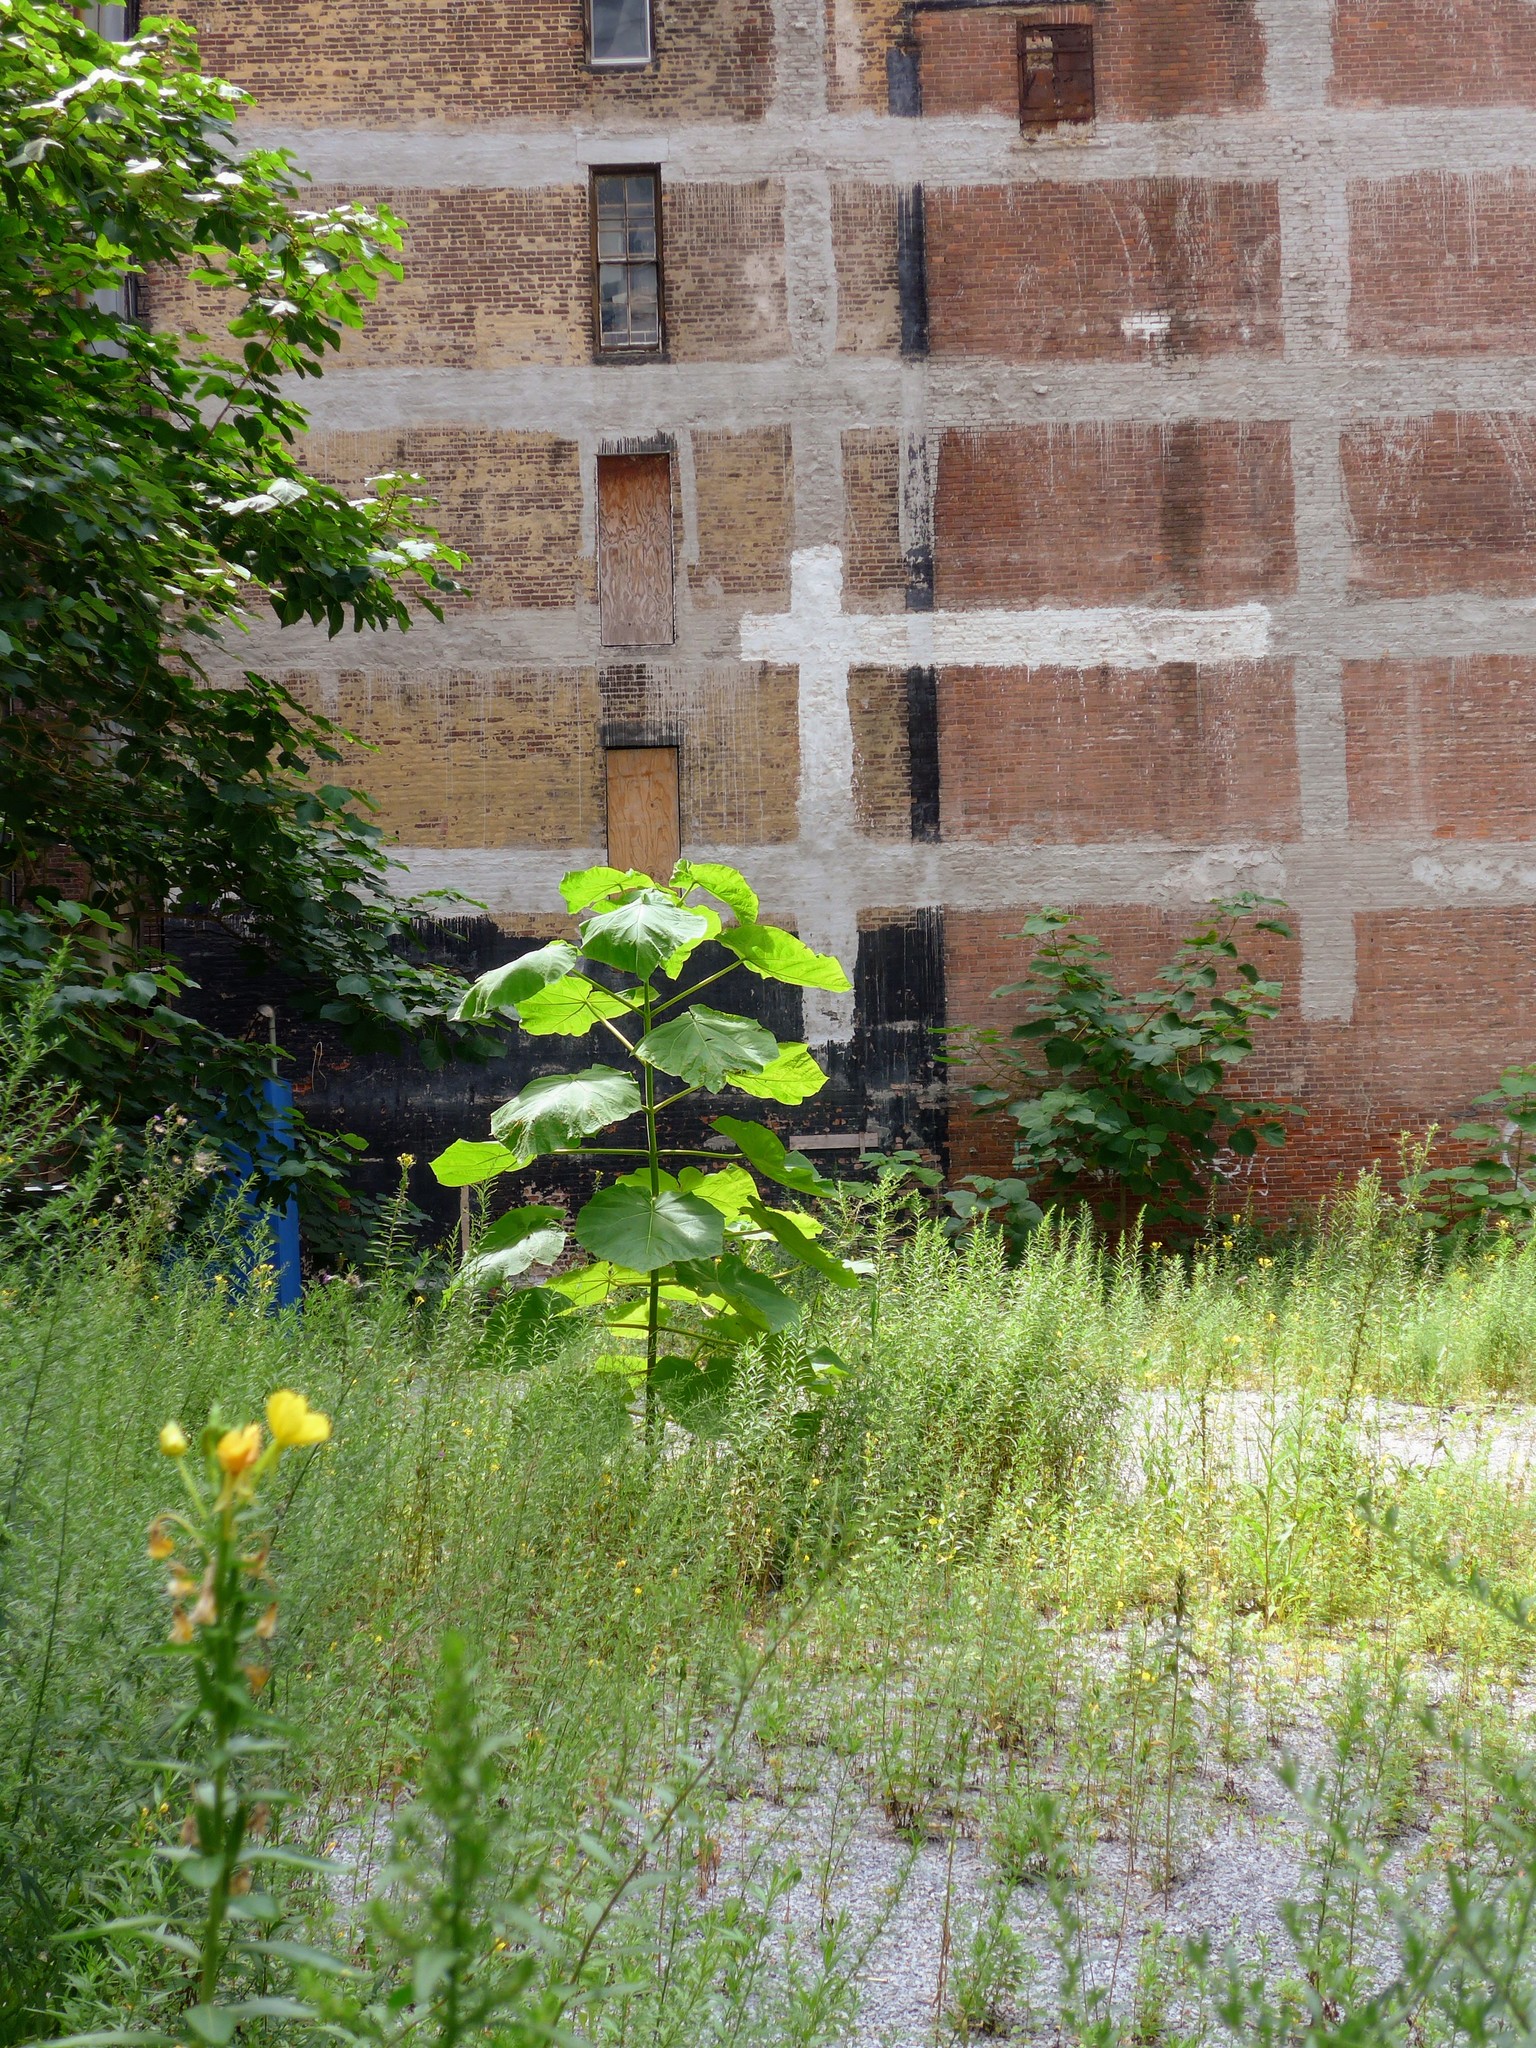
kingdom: Plantae
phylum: Tracheophyta
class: Magnoliopsida
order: Lamiales
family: Paulowniaceae
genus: Paulownia
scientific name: Paulownia tomentosa
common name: Foxglove-tree
